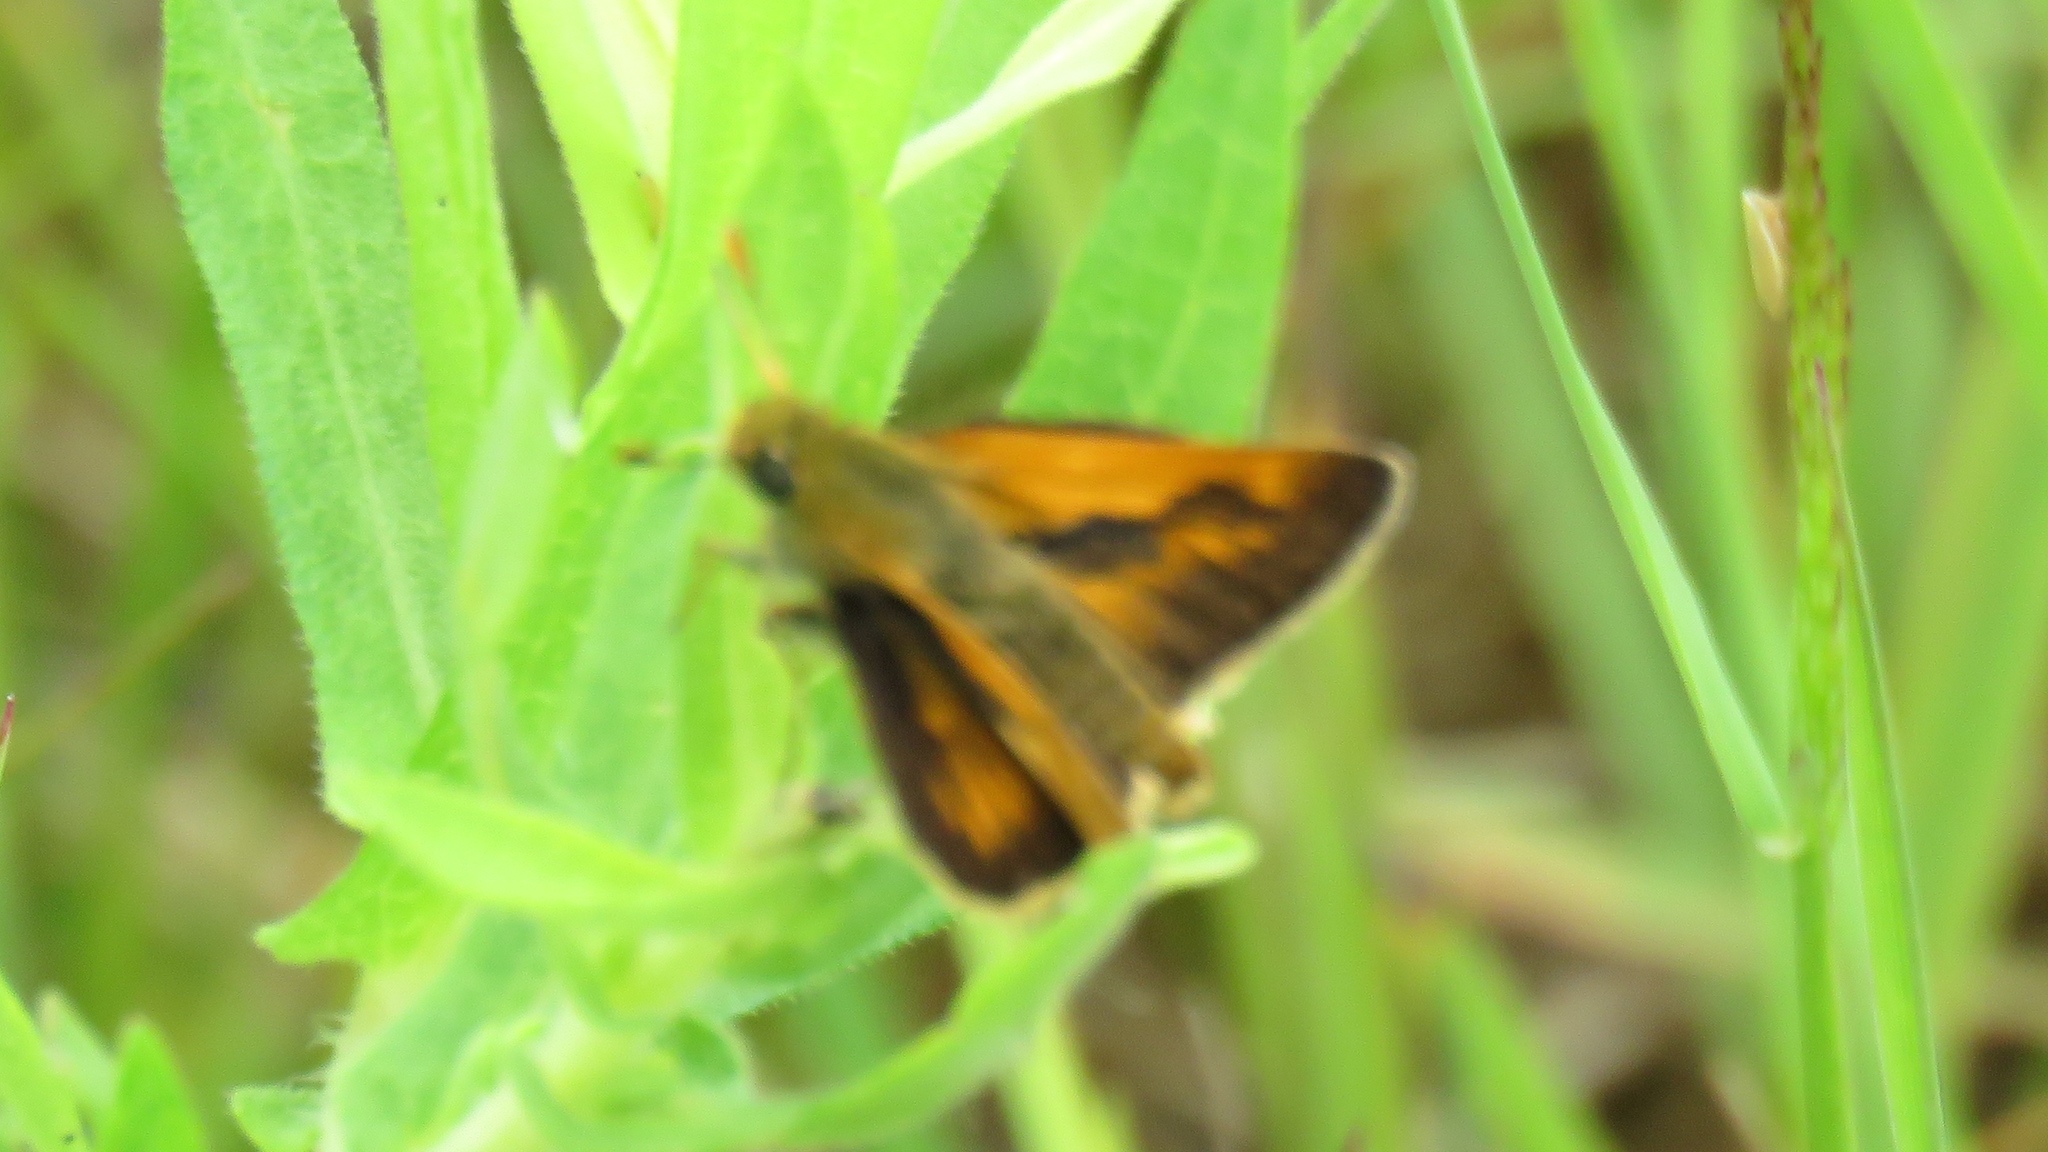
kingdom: Animalia
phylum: Arthropoda
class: Insecta
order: Lepidoptera
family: Hesperiidae
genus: Polites
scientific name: Polites mystic
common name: Long dash
